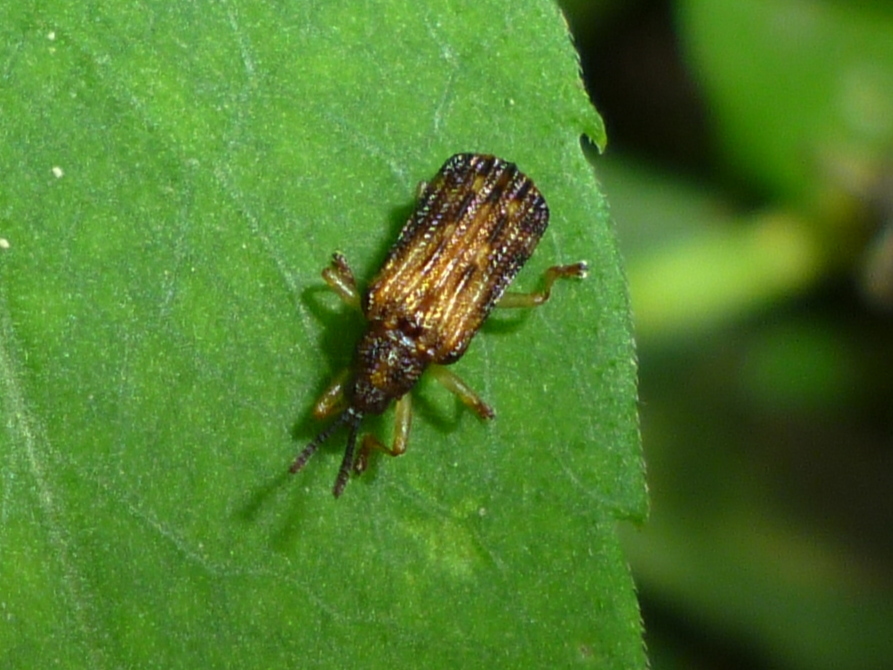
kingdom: Animalia
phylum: Arthropoda
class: Insecta
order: Coleoptera
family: Chrysomelidae
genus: Sumitrosis
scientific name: Sumitrosis inaequalis
